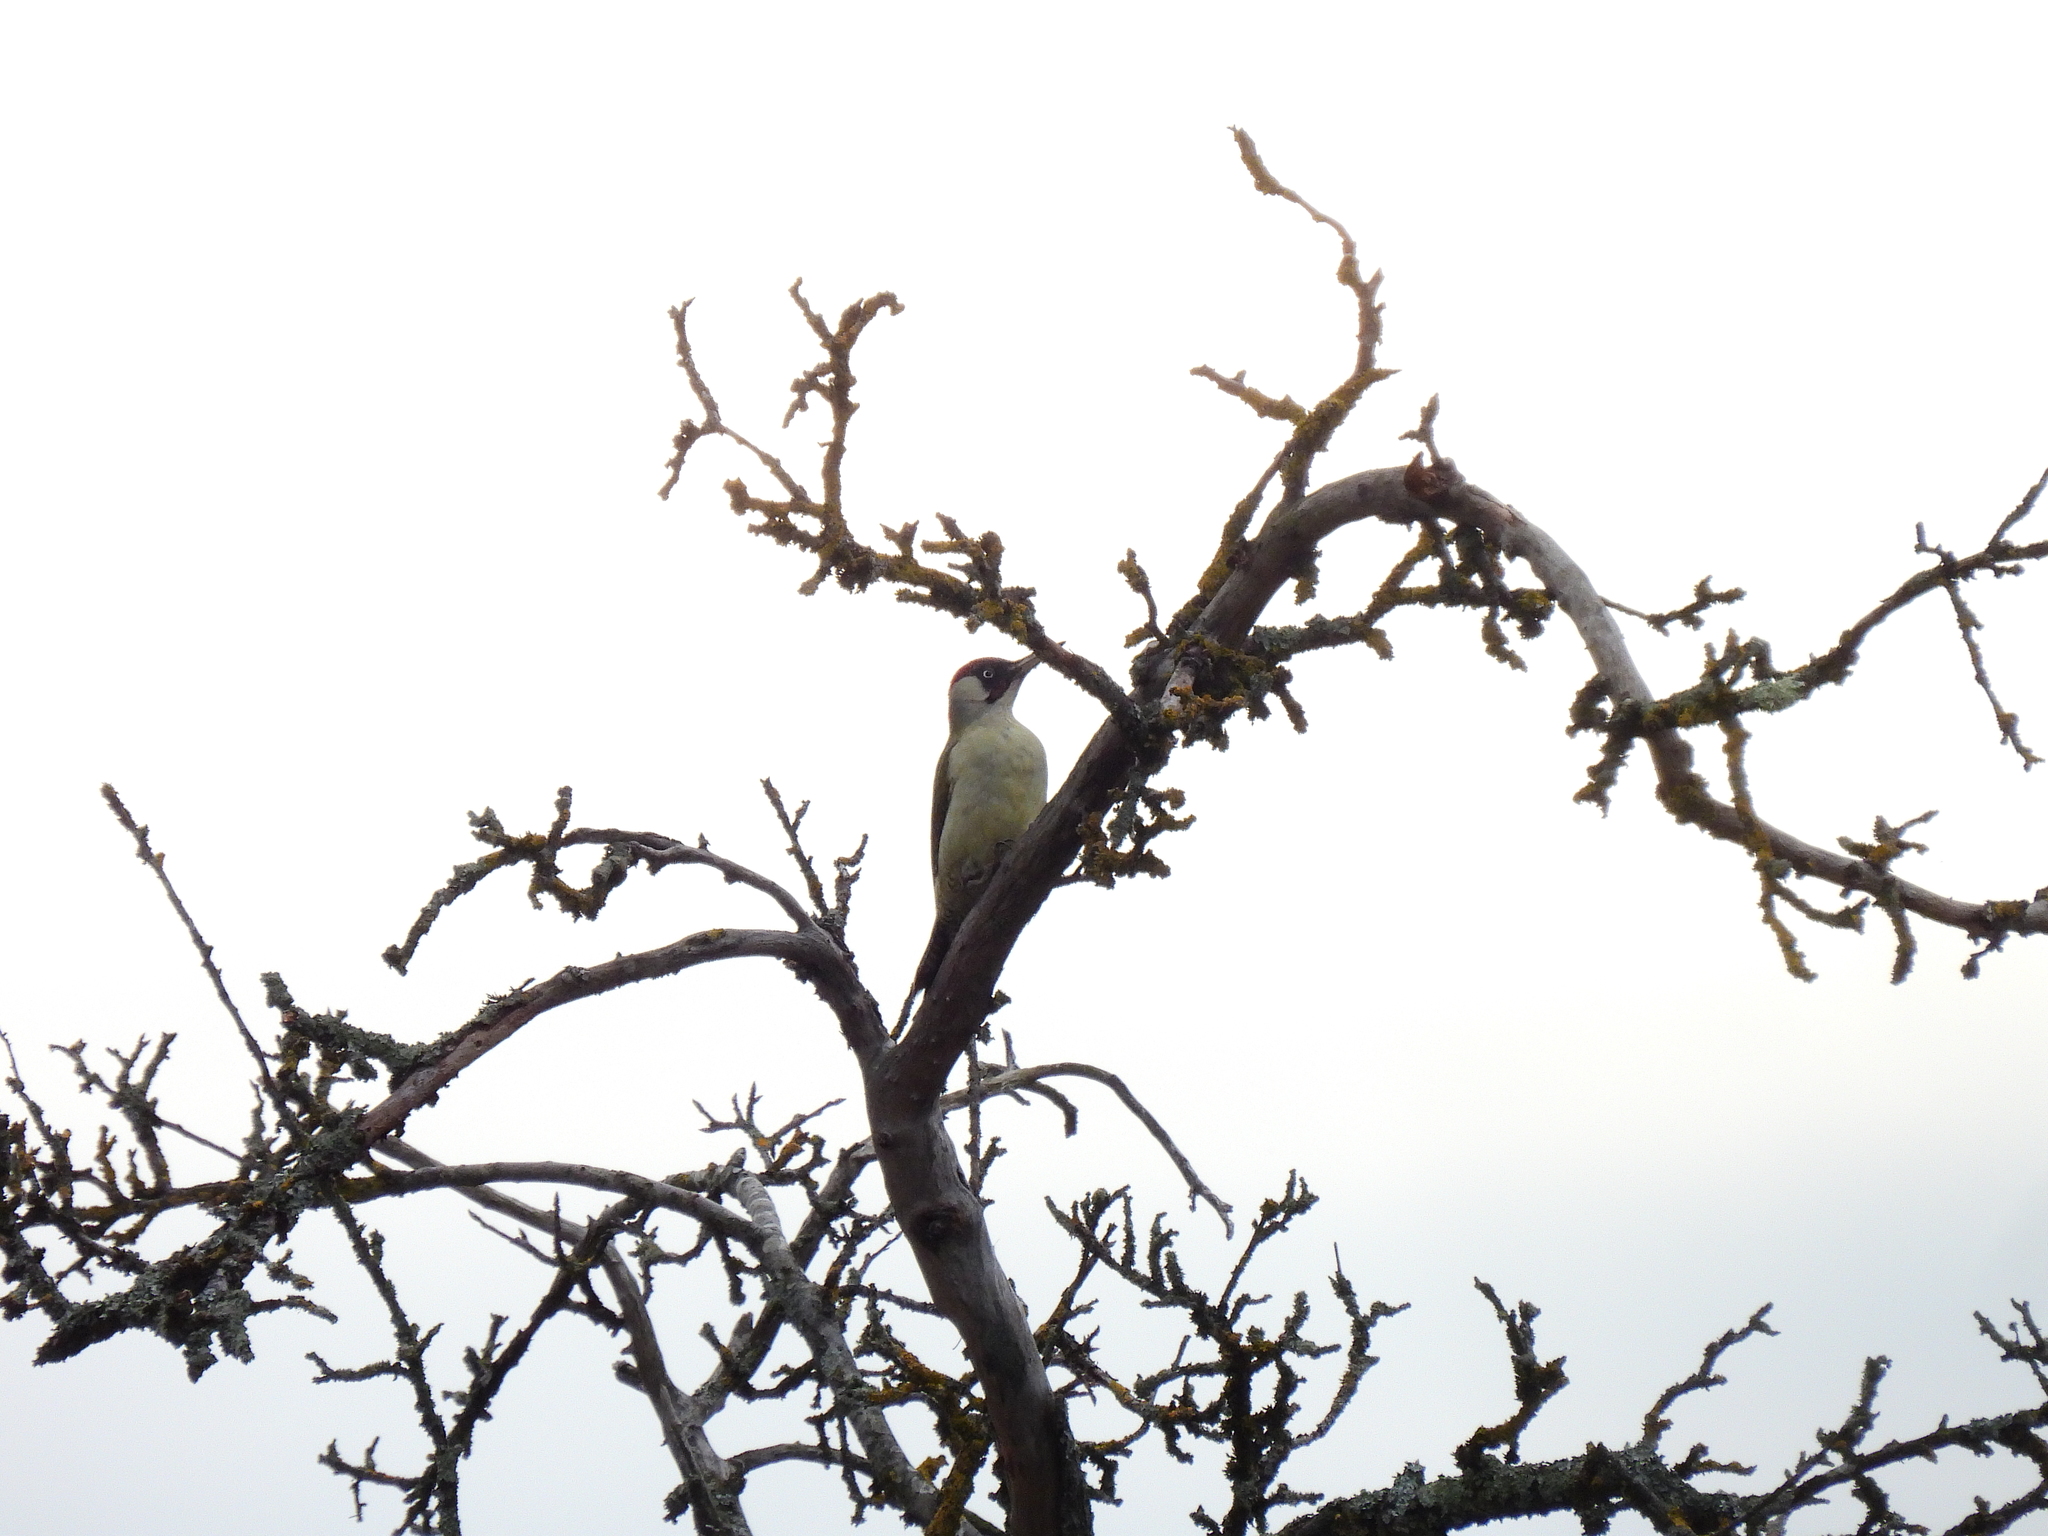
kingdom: Animalia
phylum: Chordata
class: Aves
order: Piciformes
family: Picidae
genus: Picus
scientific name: Picus viridis
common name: European green woodpecker
